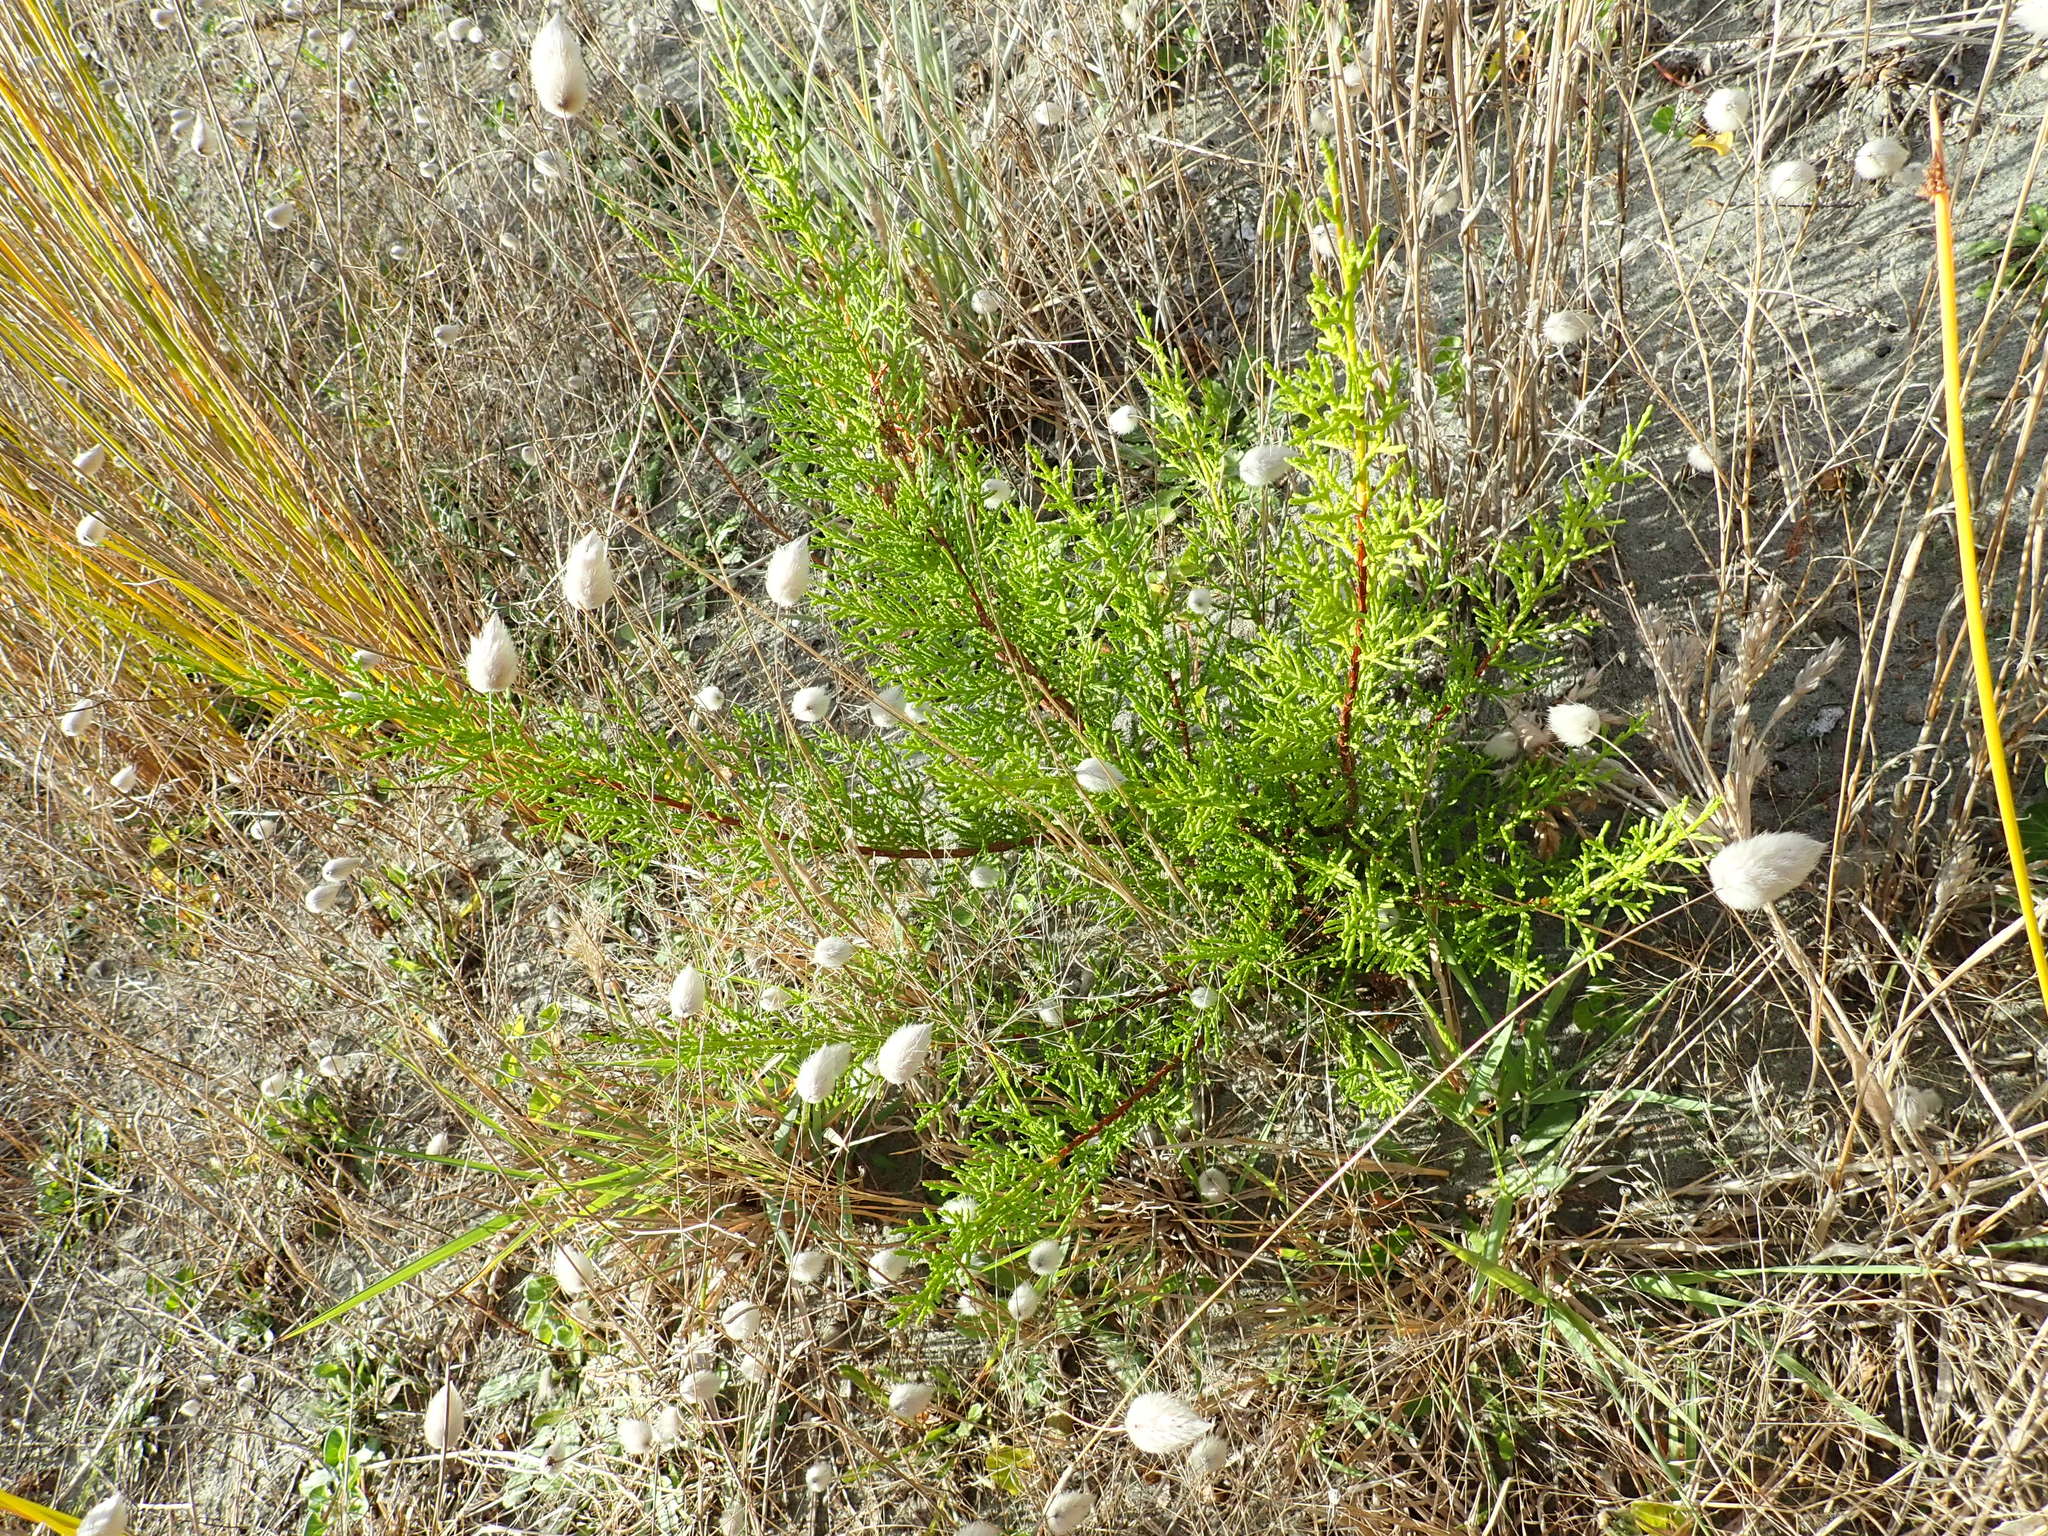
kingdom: Plantae
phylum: Tracheophyta
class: Pinopsida
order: Pinales
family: Cupressaceae
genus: Cupressus
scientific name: Cupressus macrocarpa
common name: Monterey cypress
